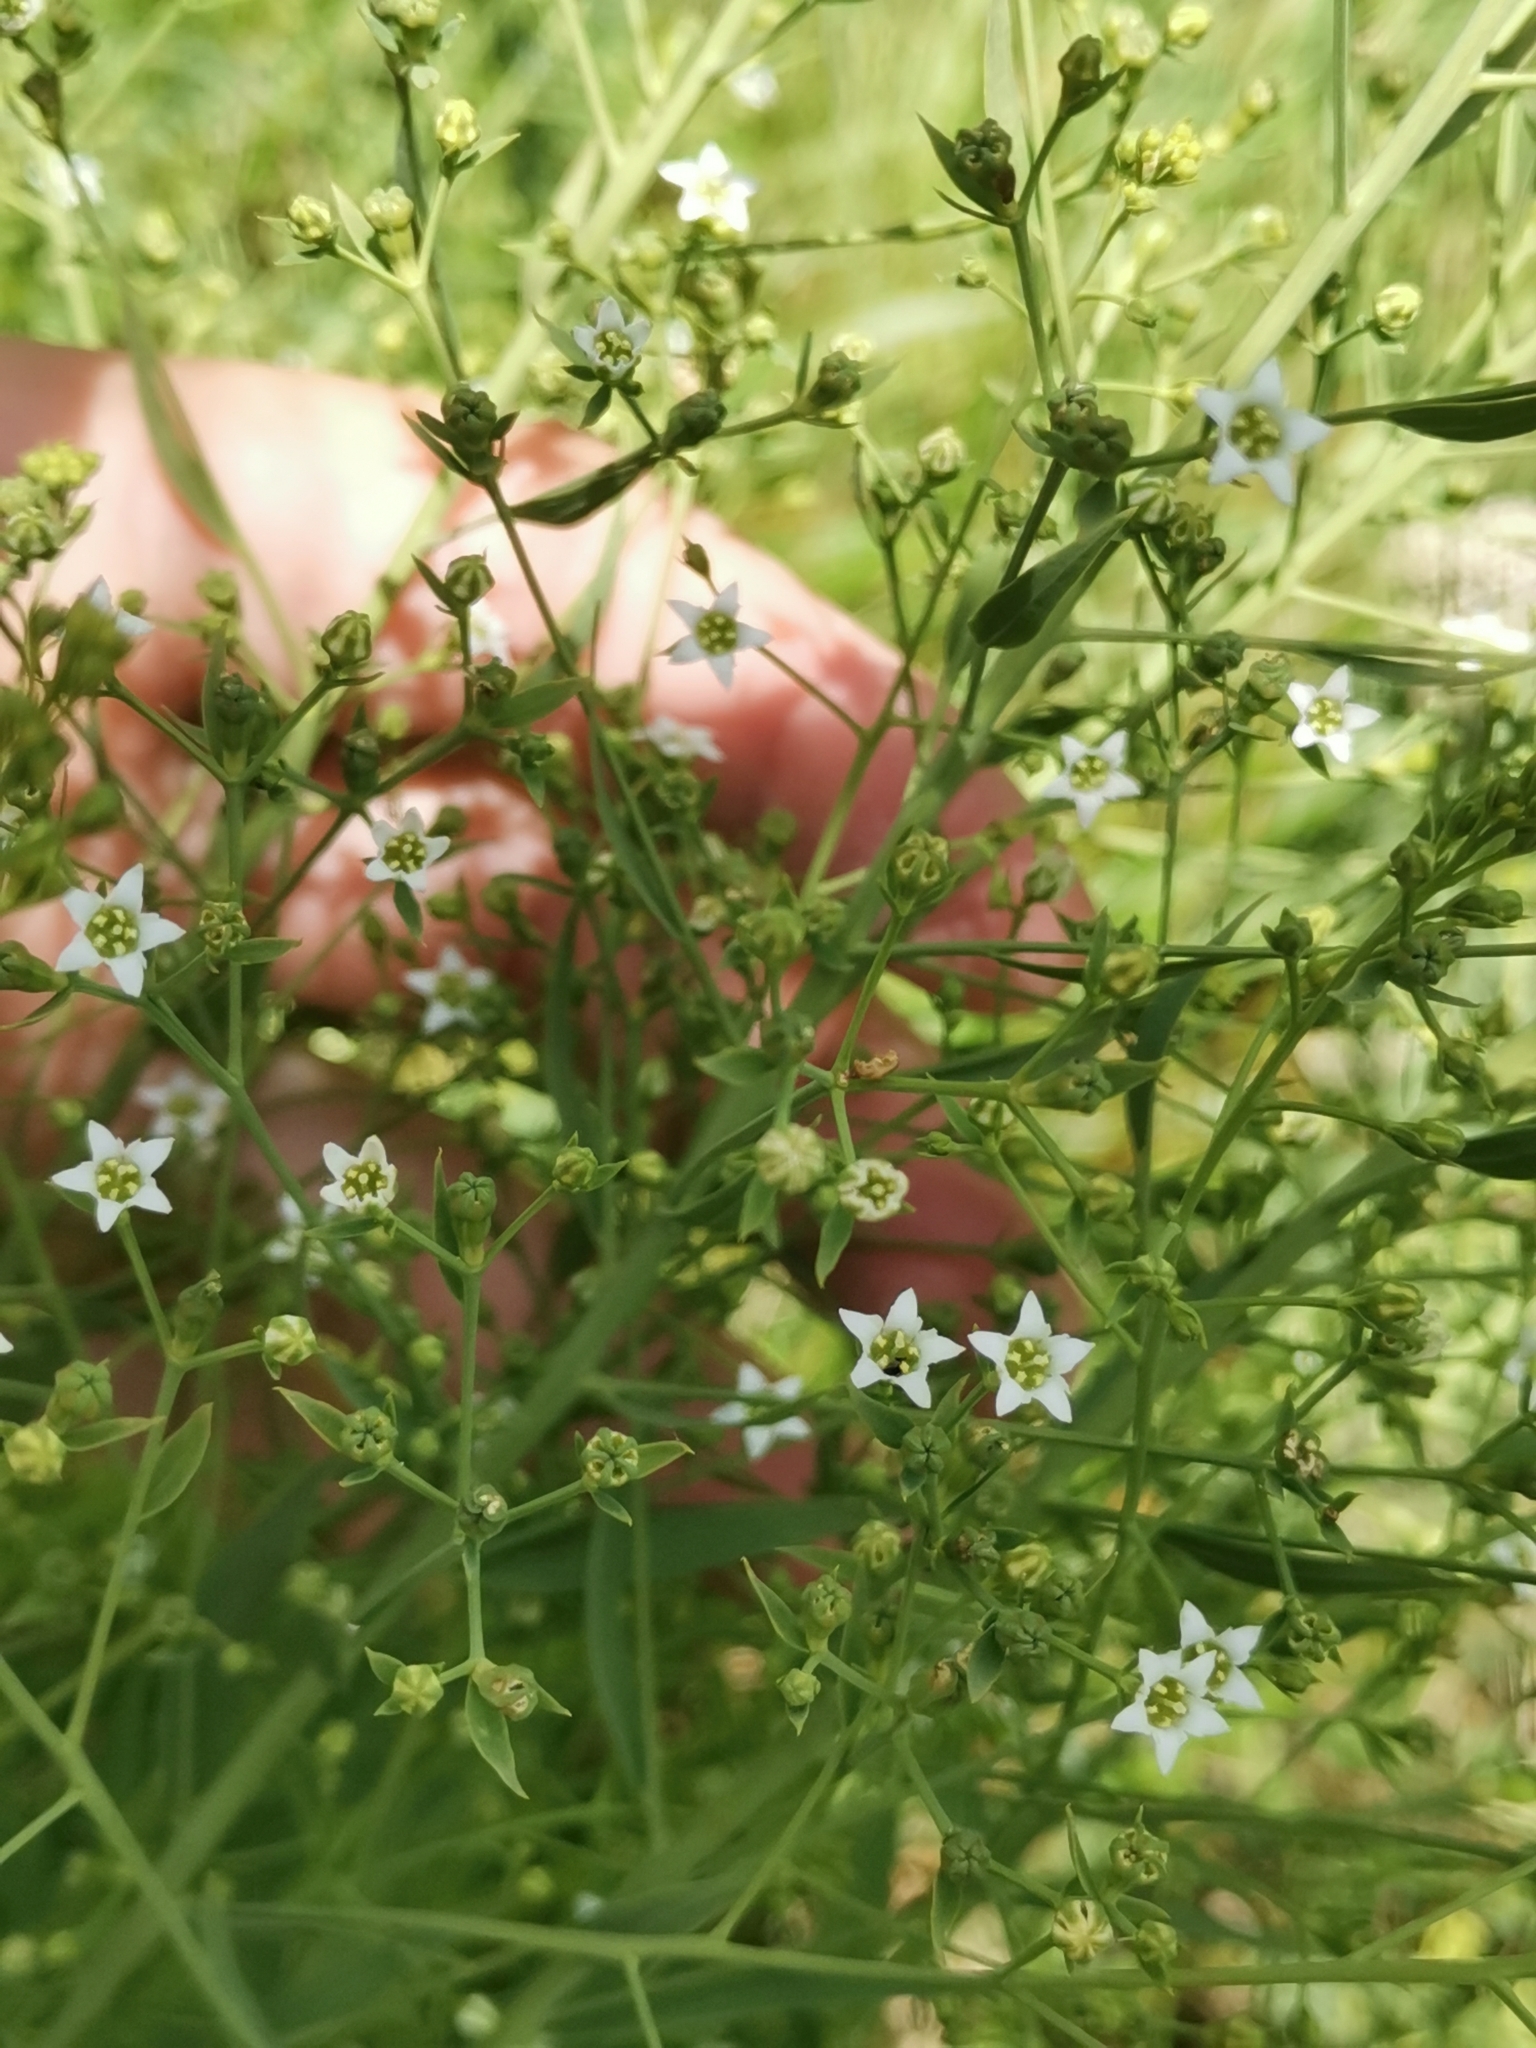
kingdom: Plantae
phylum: Tracheophyta
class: Magnoliopsida
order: Santalales
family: Thesiaceae
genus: Thesium
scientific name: Thesium bavarum
